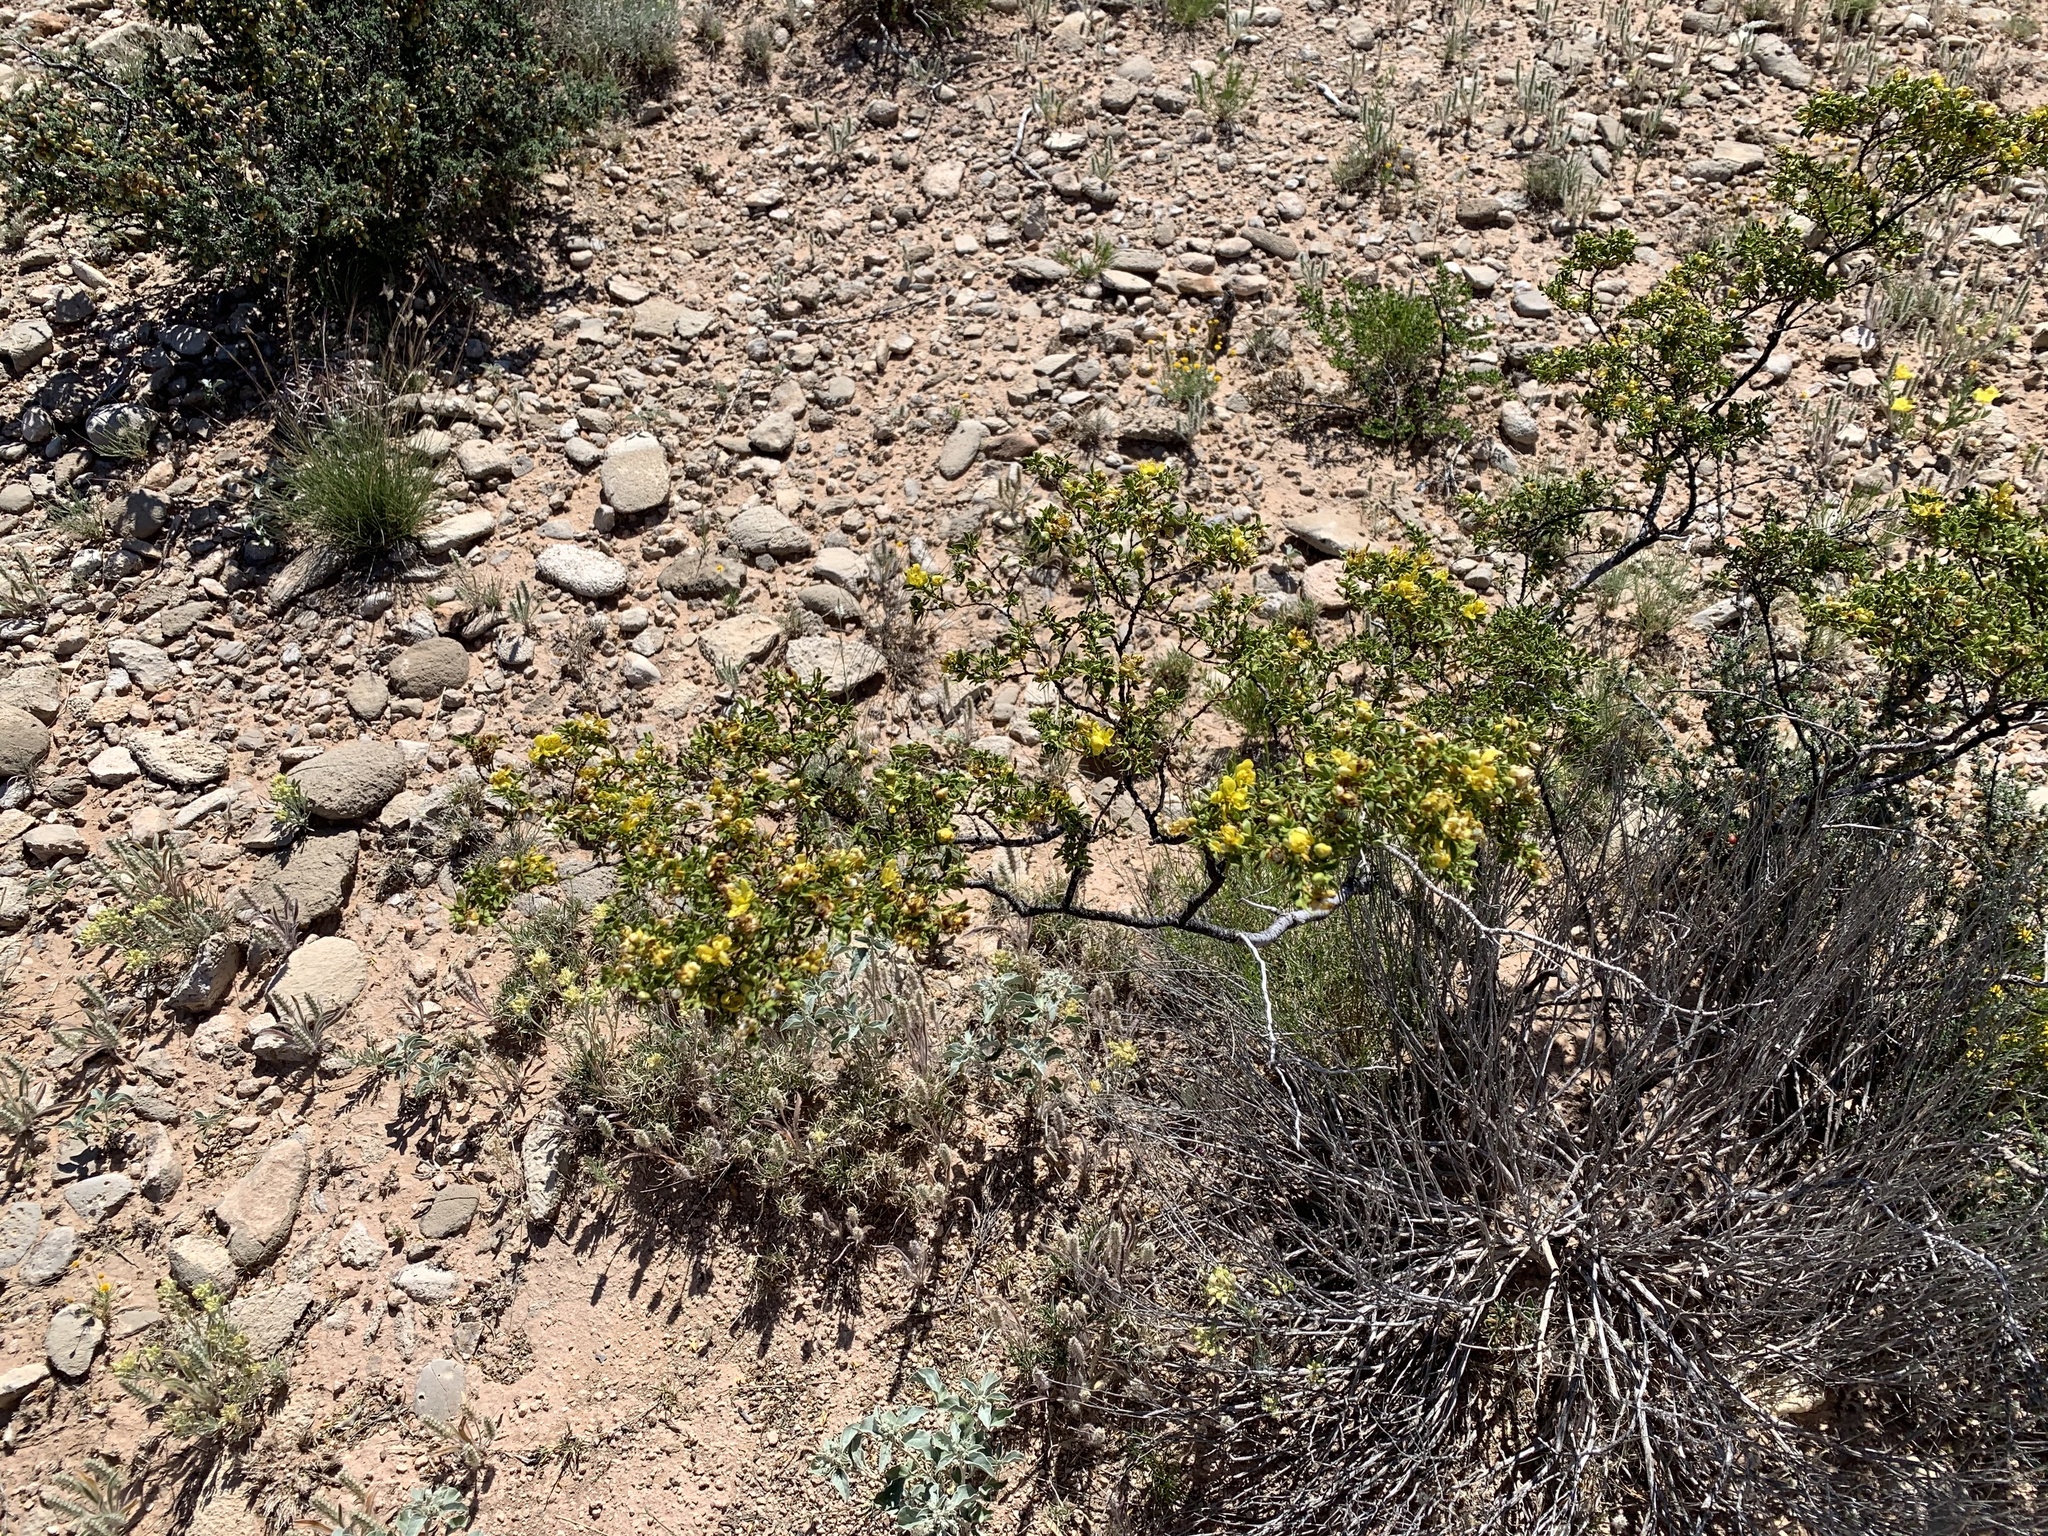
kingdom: Plantae
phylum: Tracheophyta
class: Magnoliopsida
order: Zygophyllales
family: Zygophyllaceae
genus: Larrea
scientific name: Larrea tridentata
